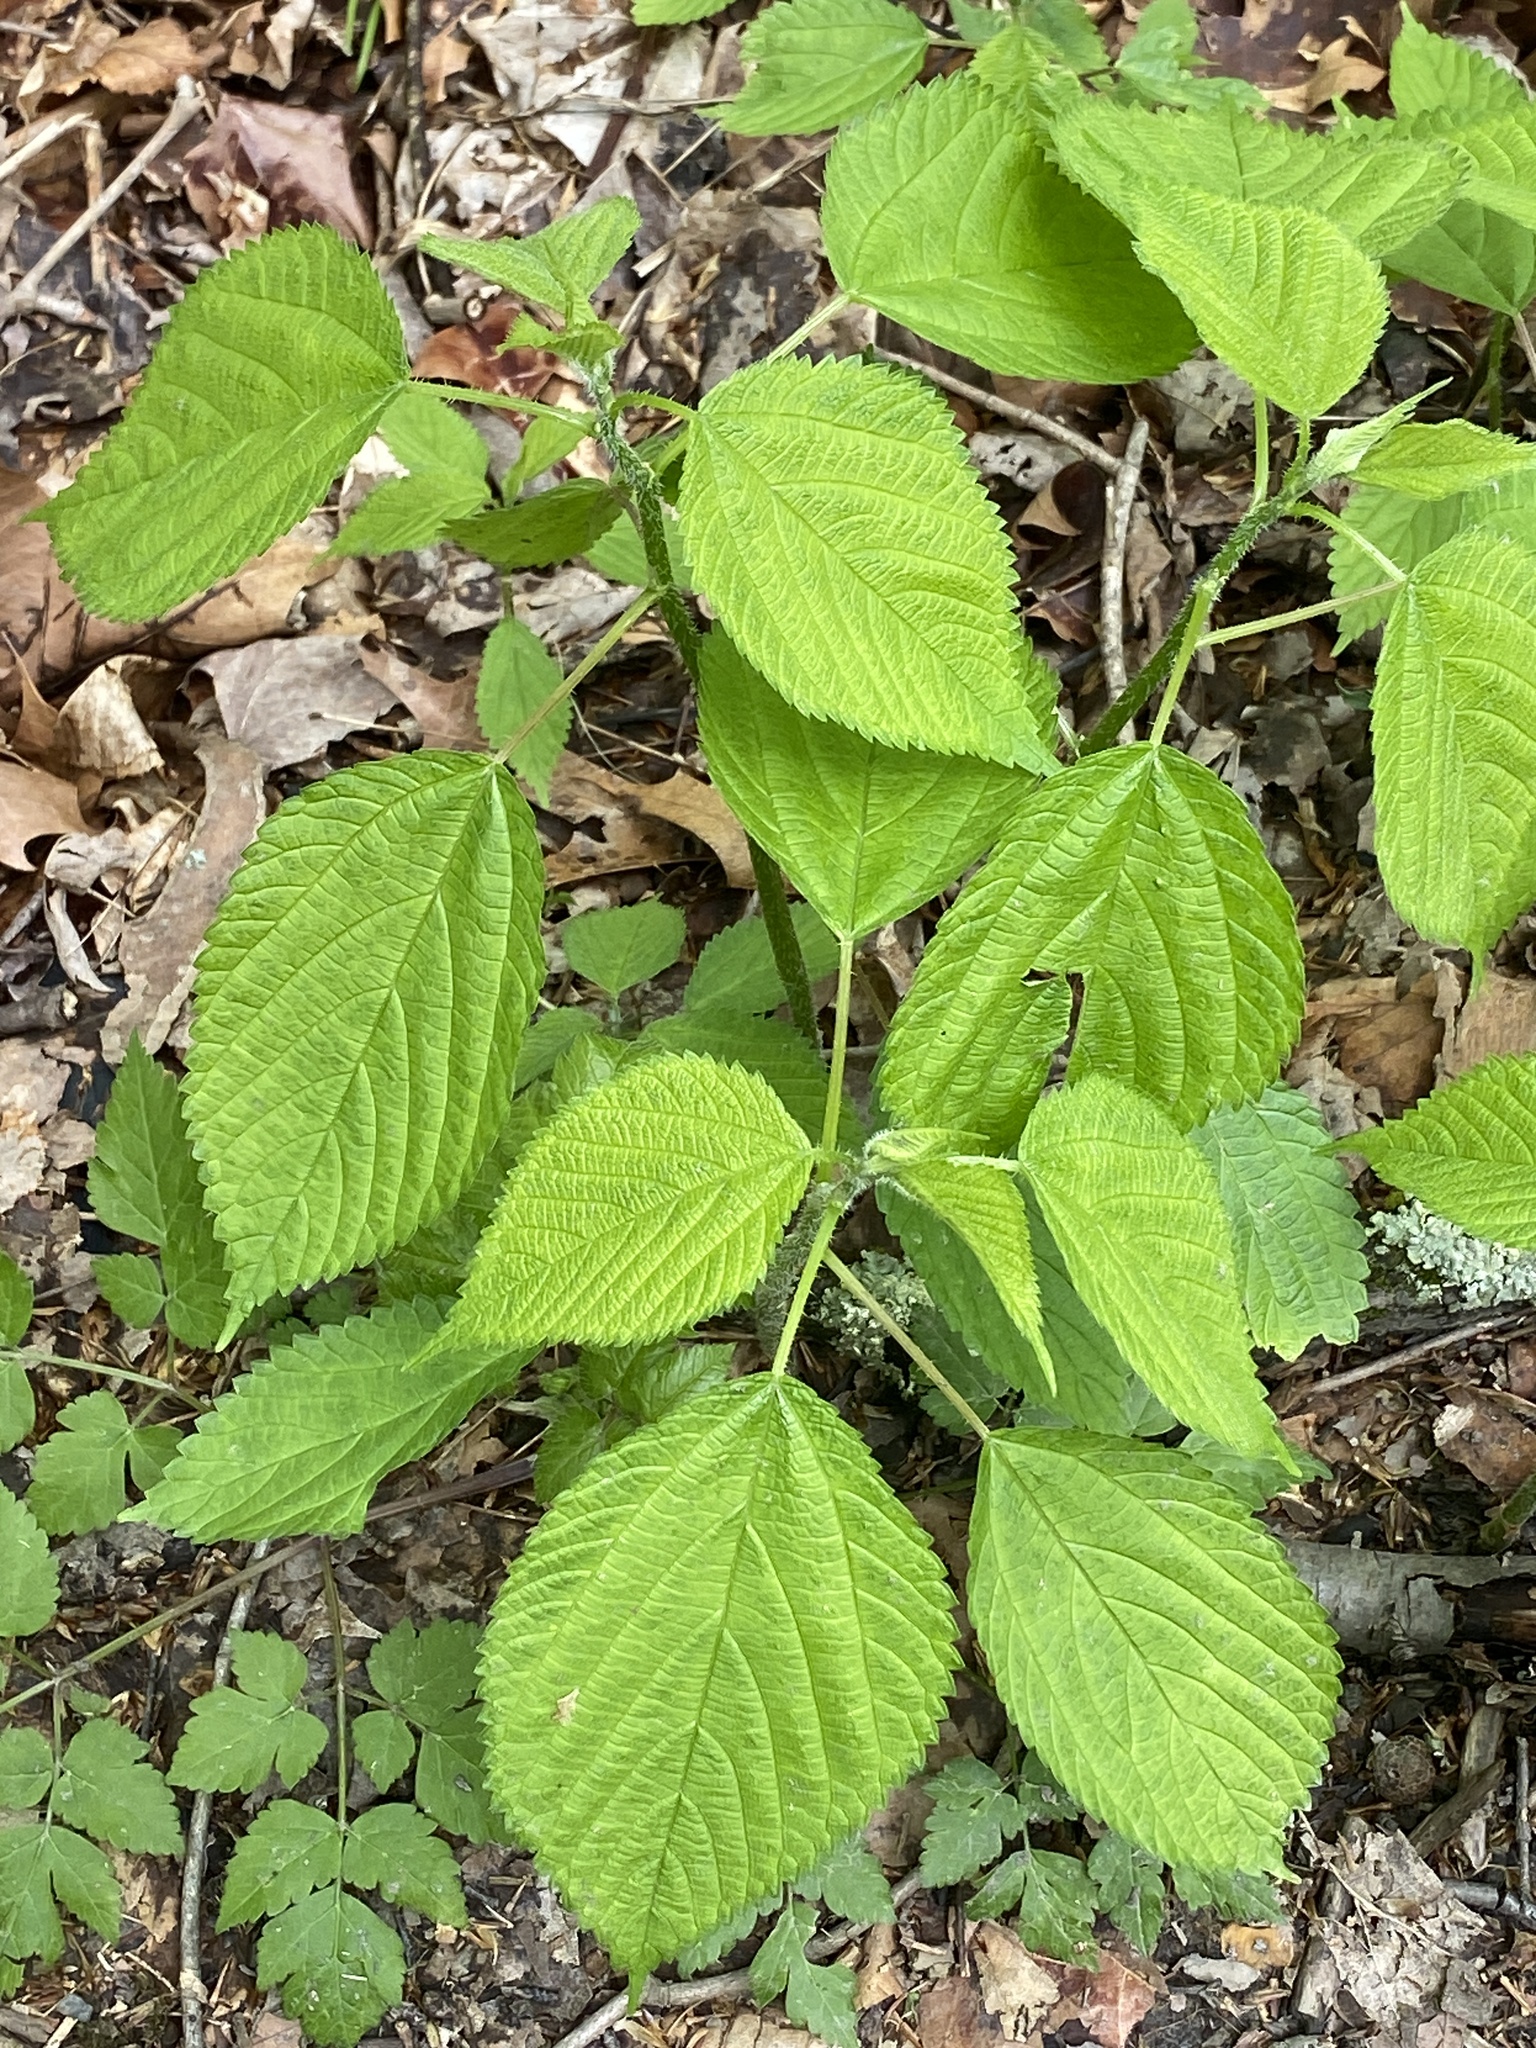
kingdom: Plantae
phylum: Tracheophyta
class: Magnoliopsida
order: Rosales
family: Urticaceae
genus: Laportea
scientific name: Laportea canadensis
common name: Canada nettle
